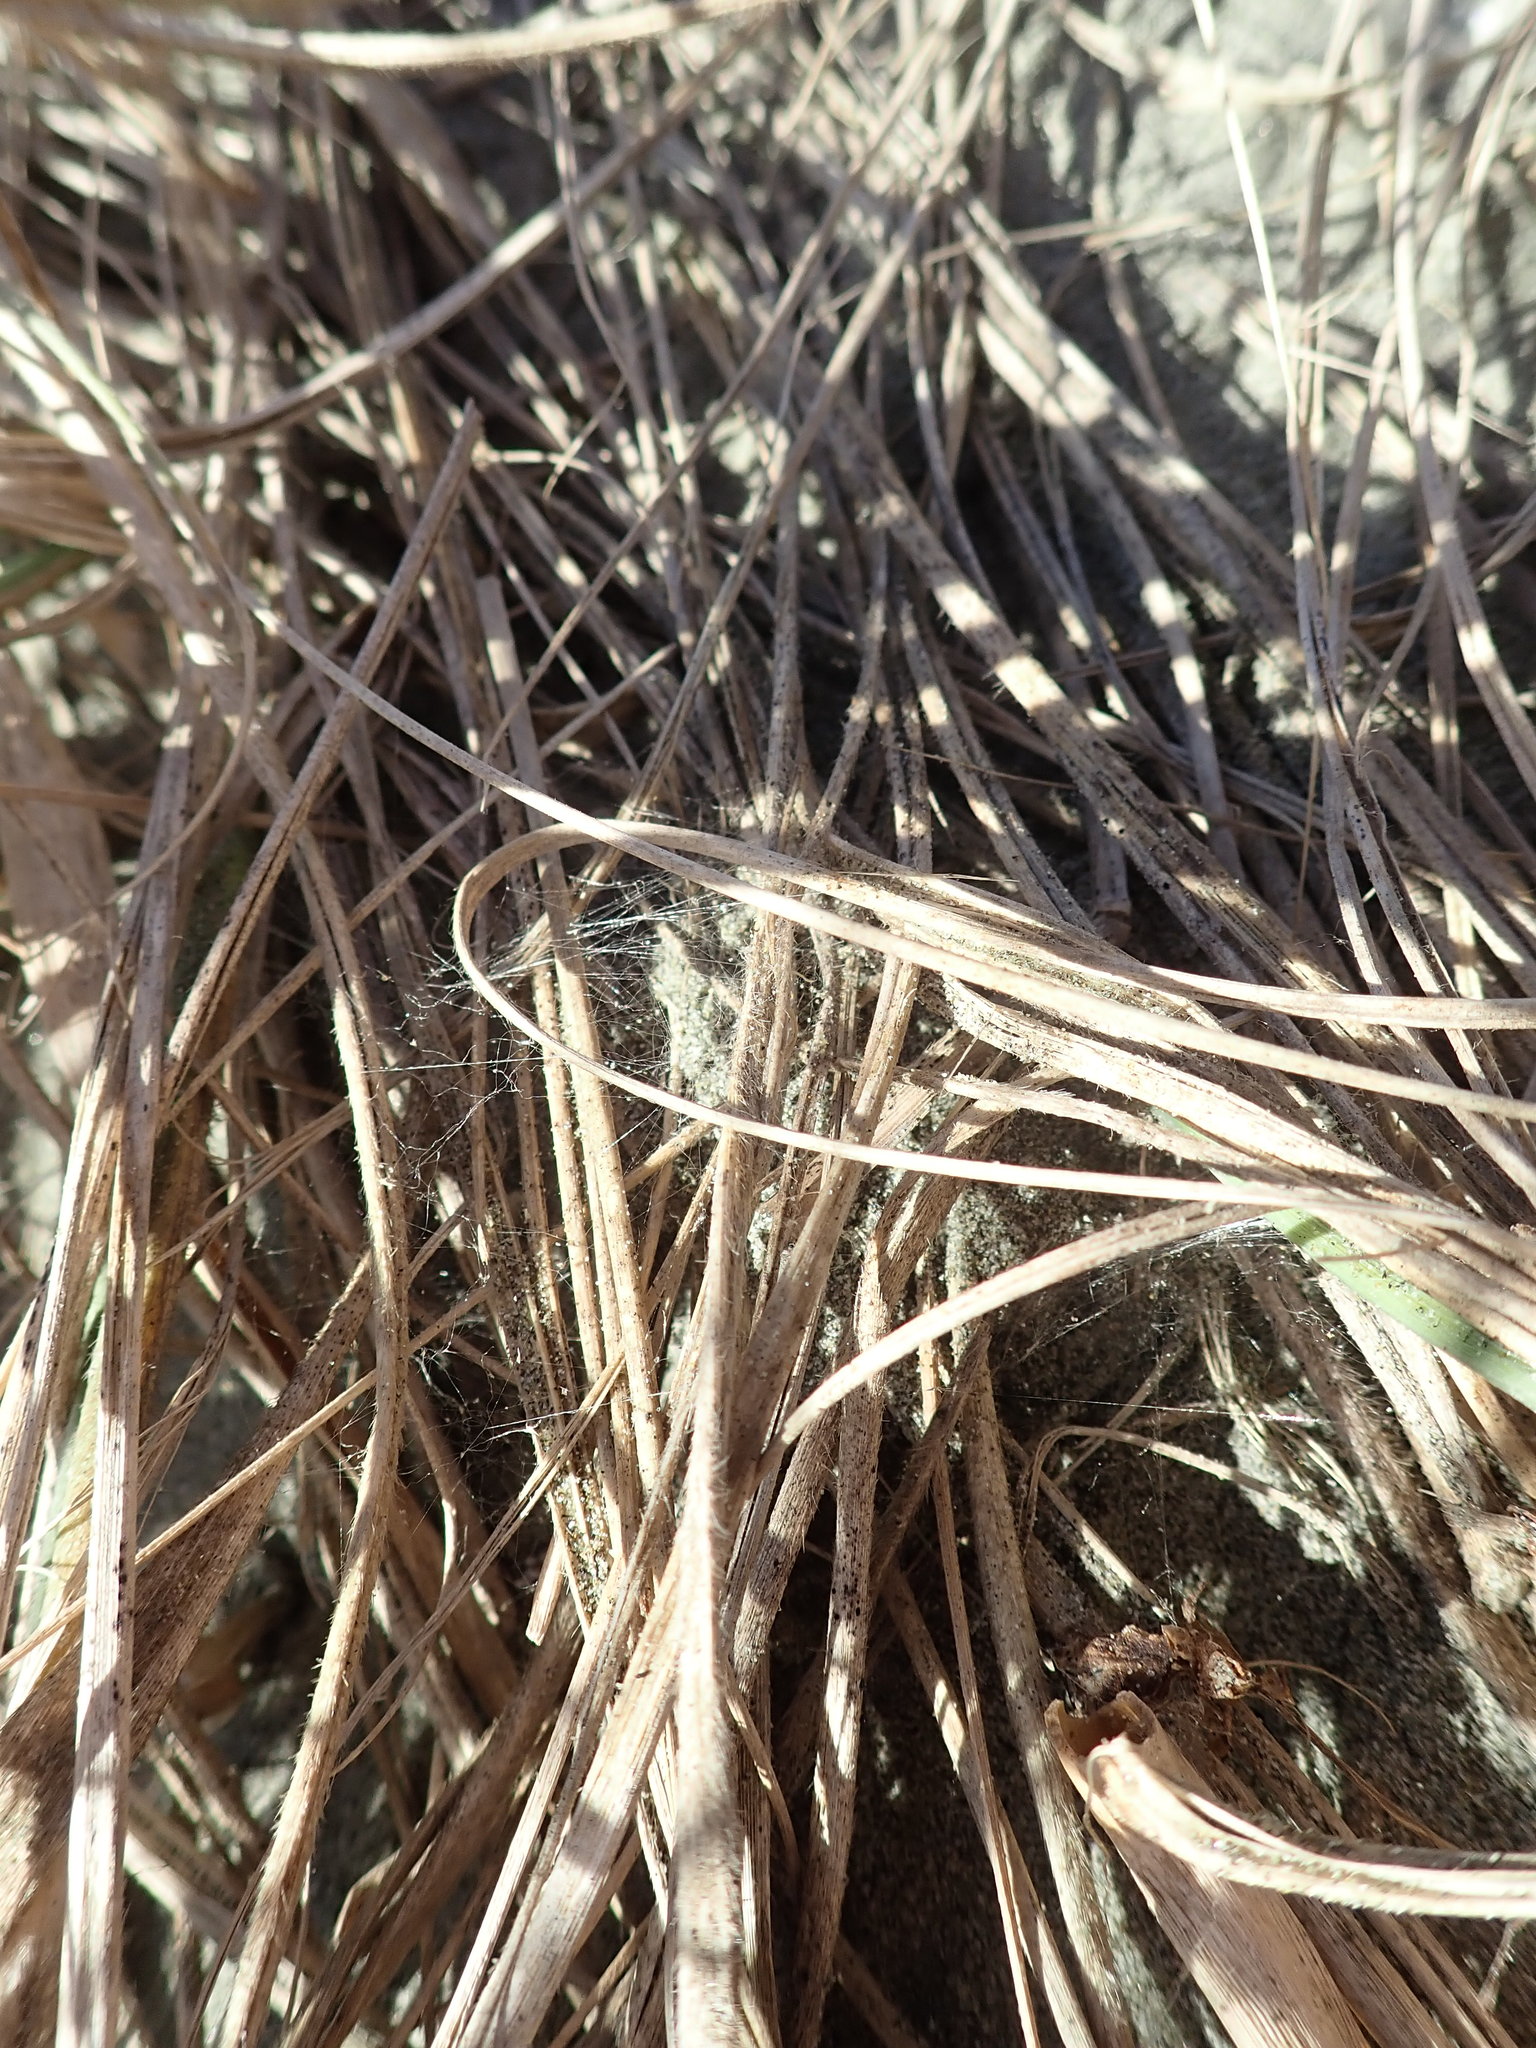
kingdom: Animalia
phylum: Arthropoda
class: Arachnida
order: Araneae
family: Theridiidae
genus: Steatoda
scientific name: Steatoda truncata
